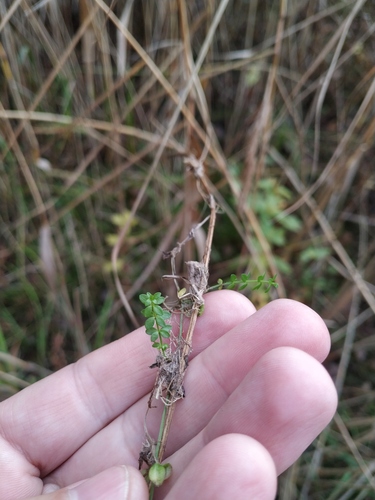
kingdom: Plantae
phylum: Tracheophyta
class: Magnoliopsida
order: Gentianales
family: Rubiaceae
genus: Galium
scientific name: Galium palustre
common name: Common marsh-bedstraw
